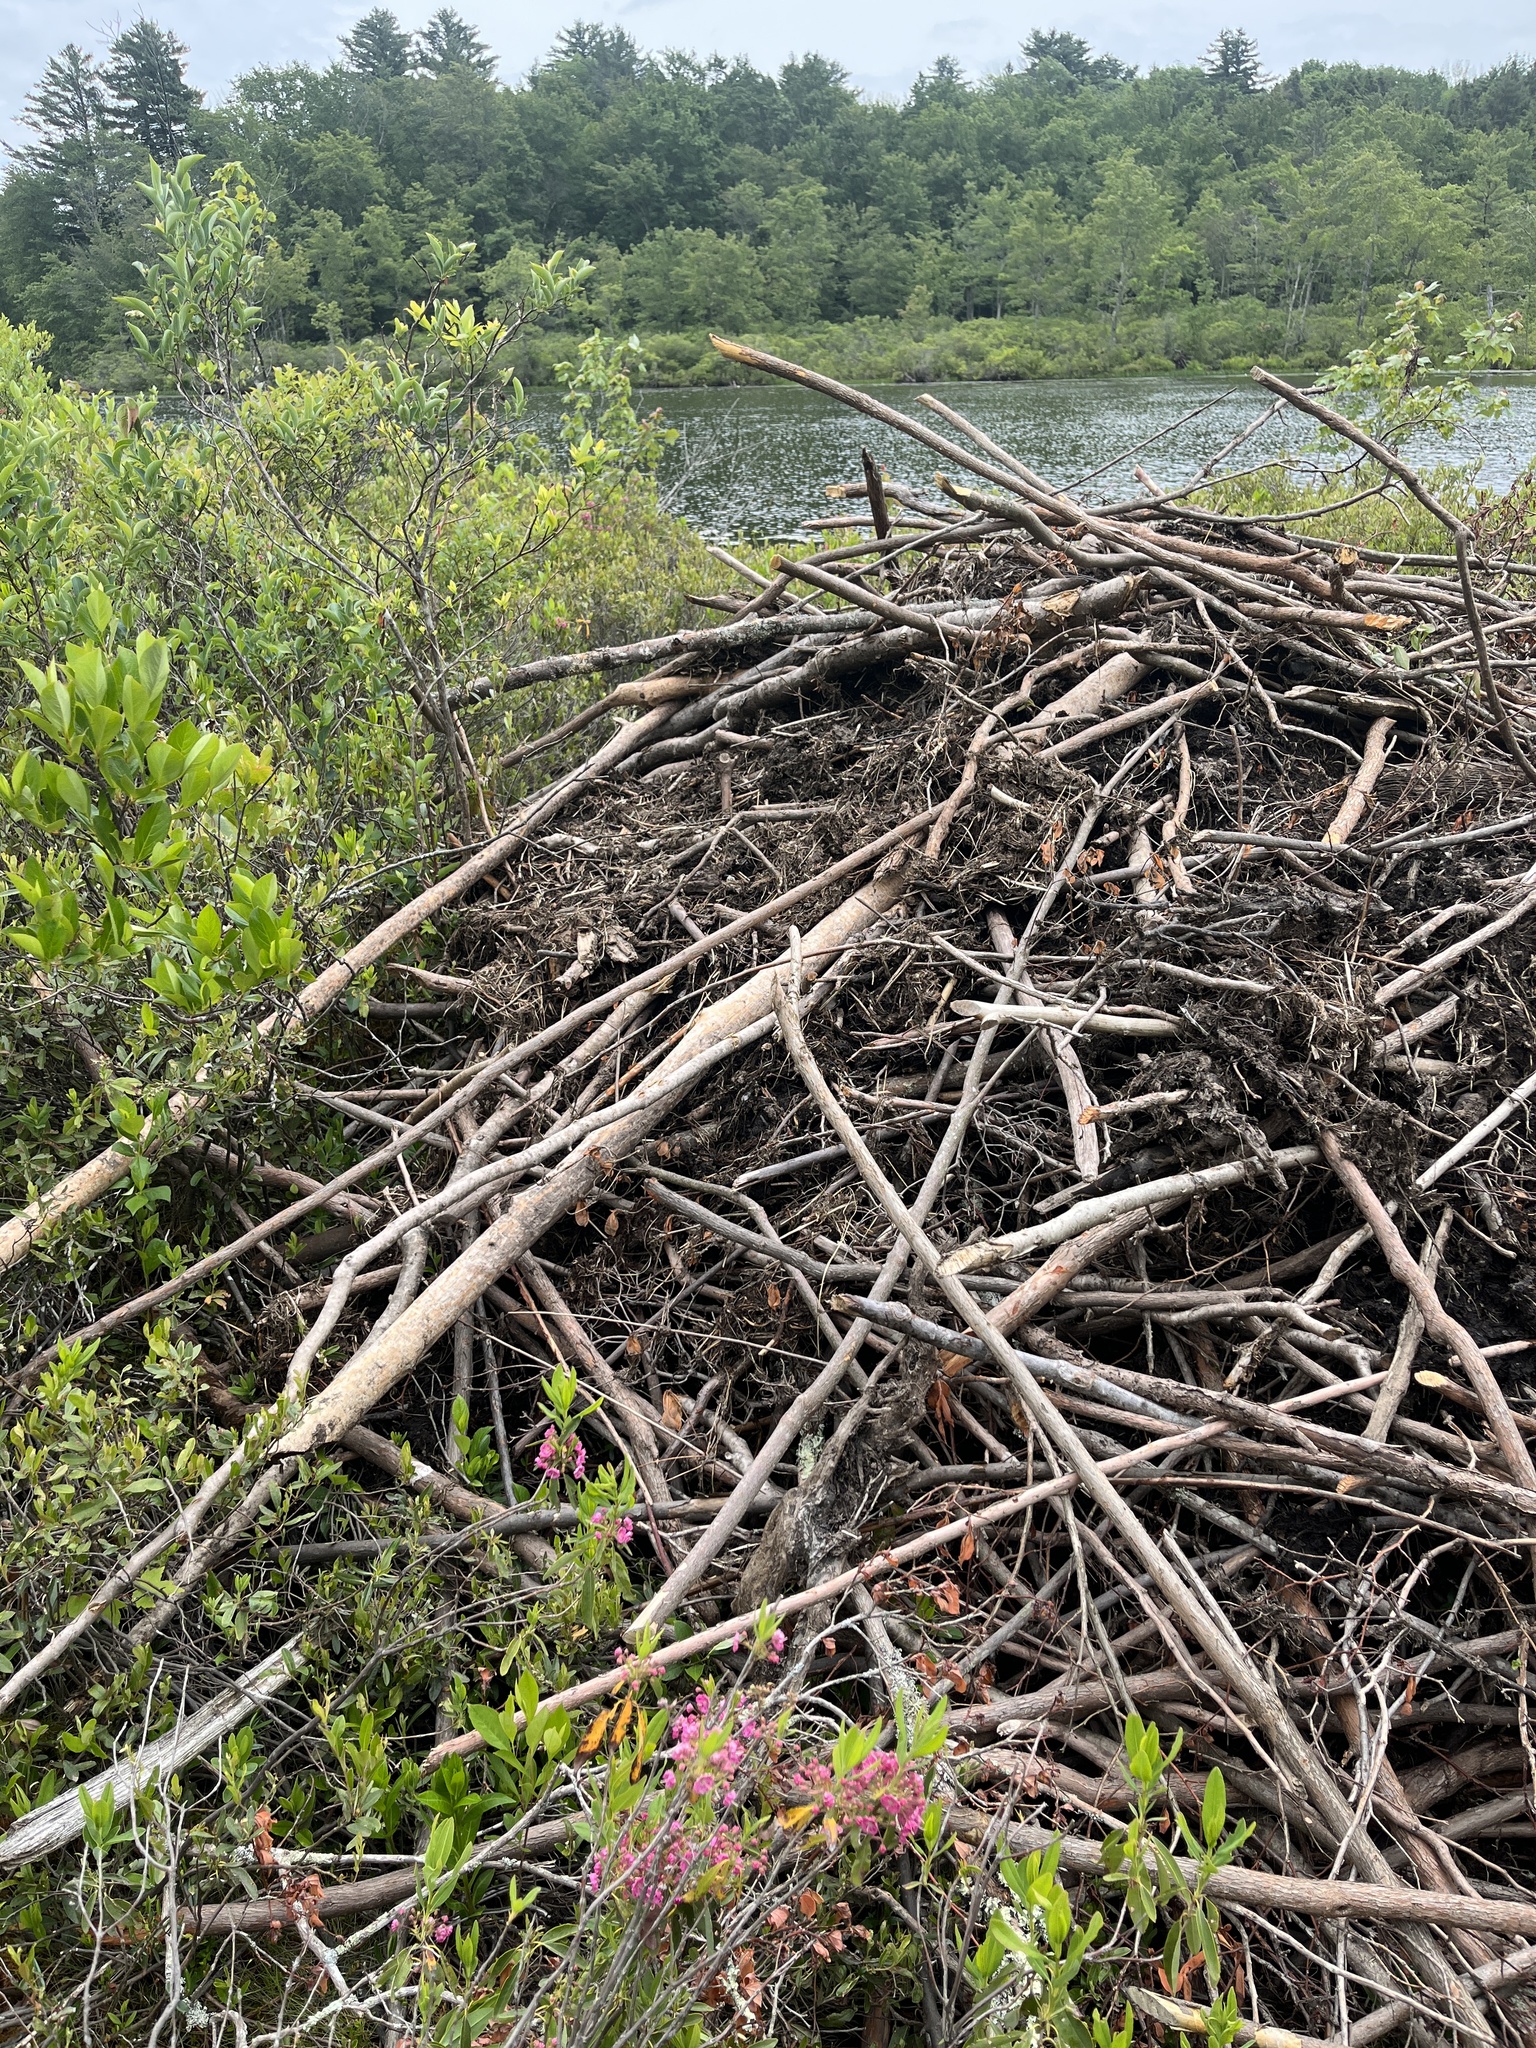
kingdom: Animalia
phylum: Chordata
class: Mammalia
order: Rodentia
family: Castoridae
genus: Castor
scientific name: Castor canadensis
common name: American beaver
